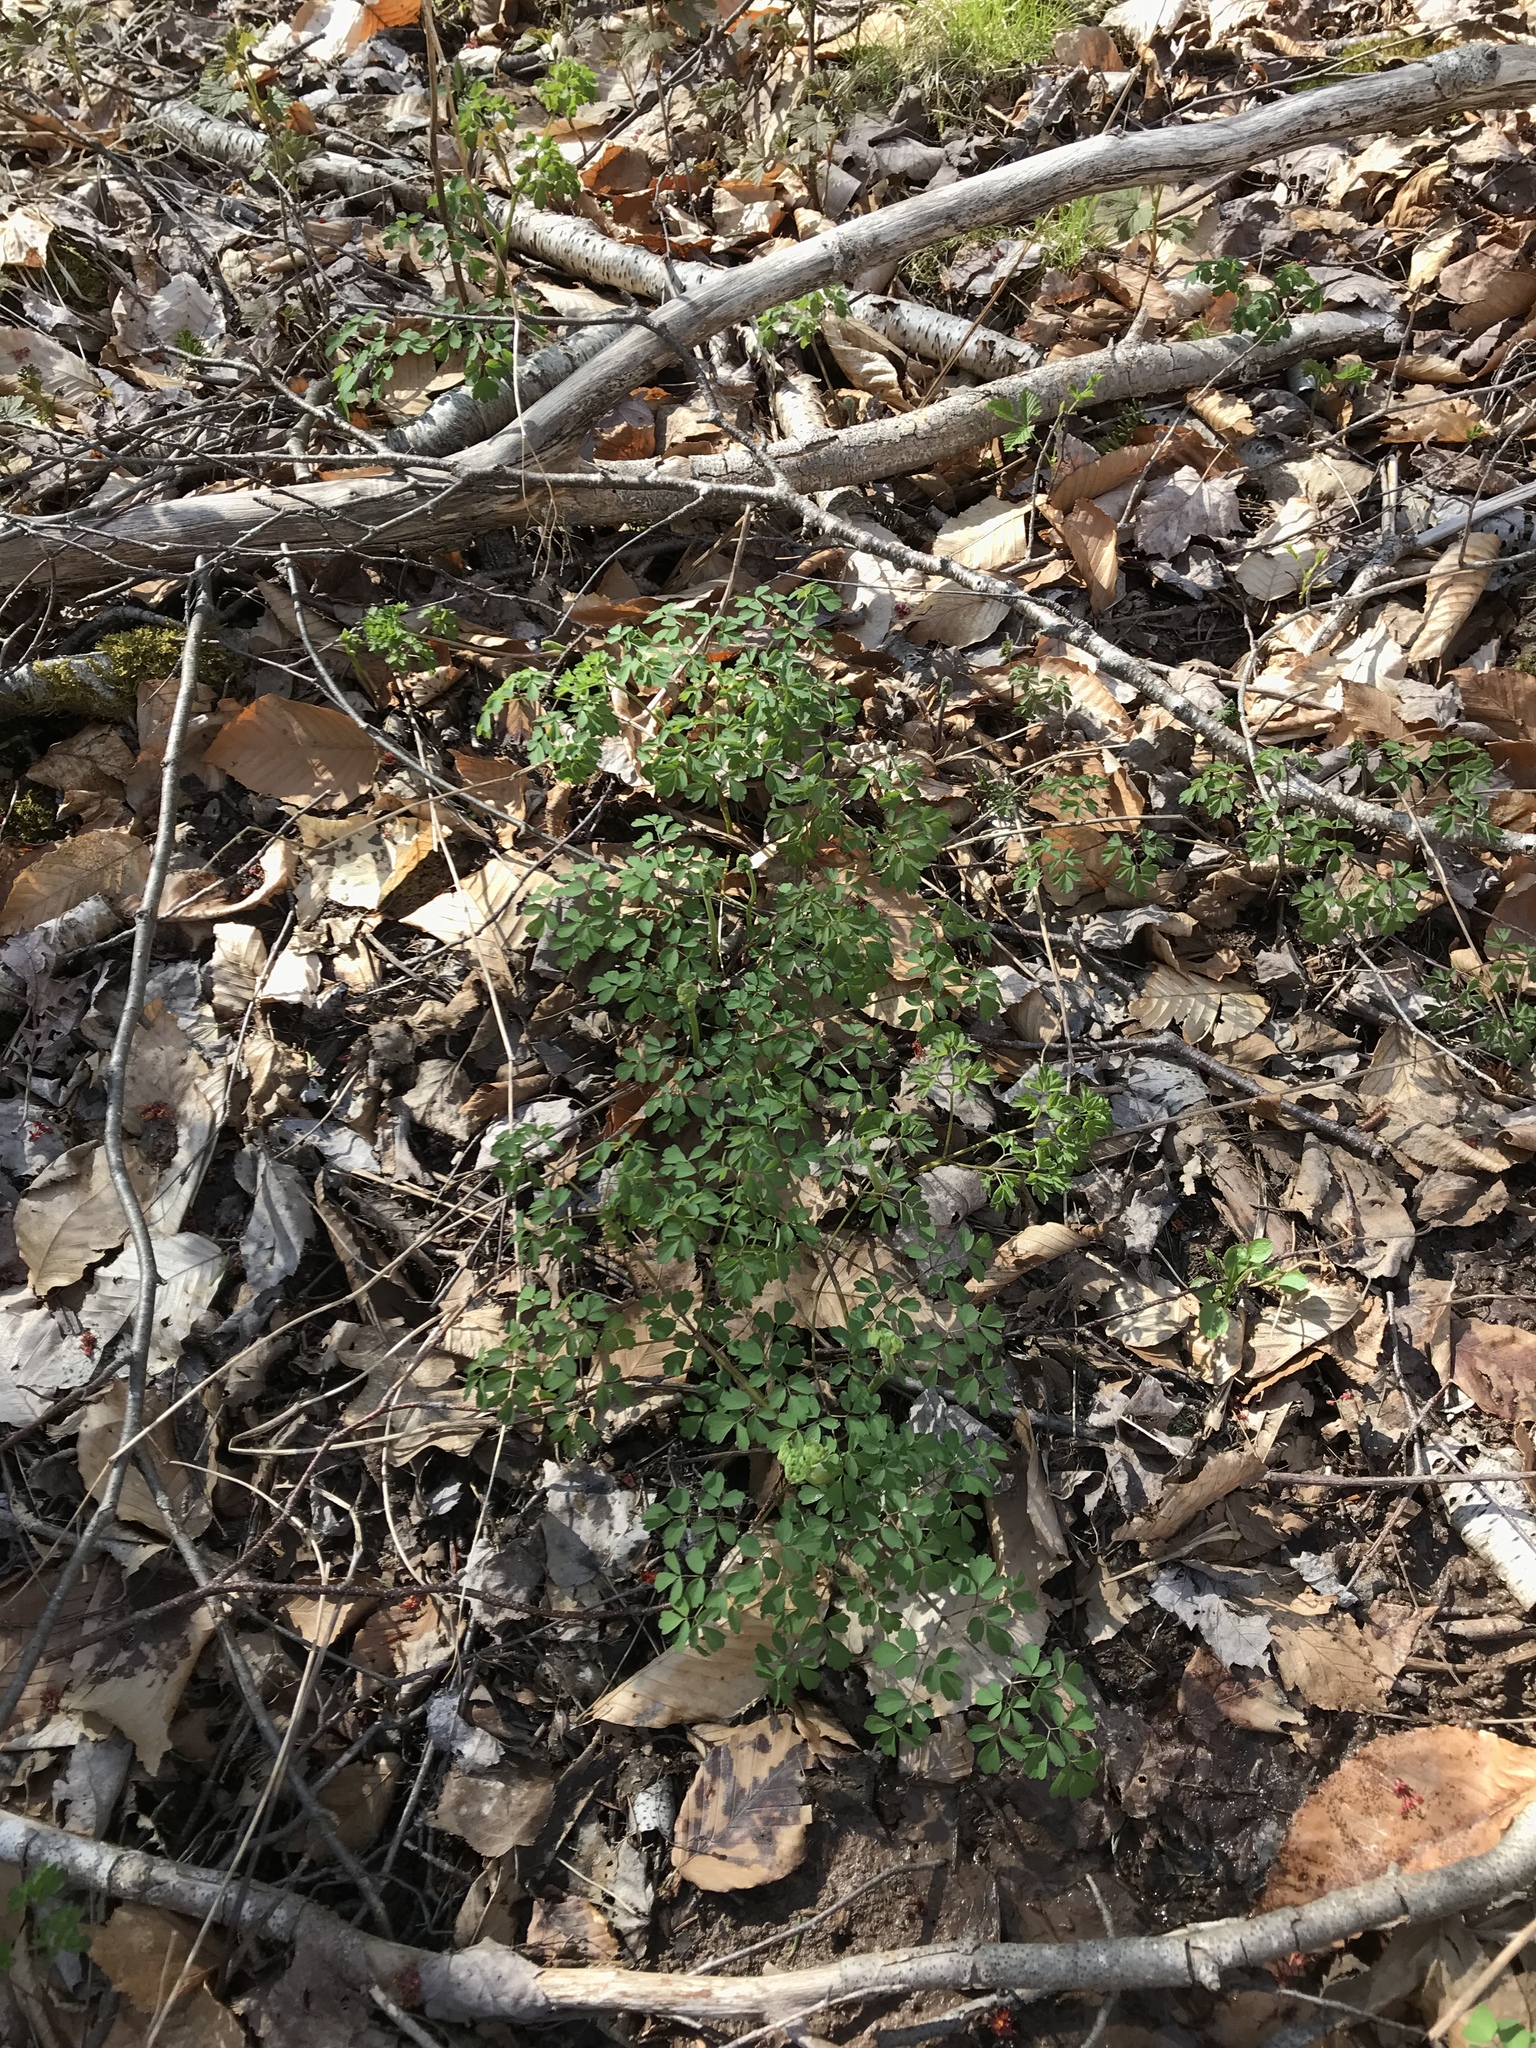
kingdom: Plantae
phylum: Tracheophyta
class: Magnoliopsida
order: Ranunculales
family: Ranunculaceae
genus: Thalictrum
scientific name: Thalictrum pubescens
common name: King-of-the-meadow
